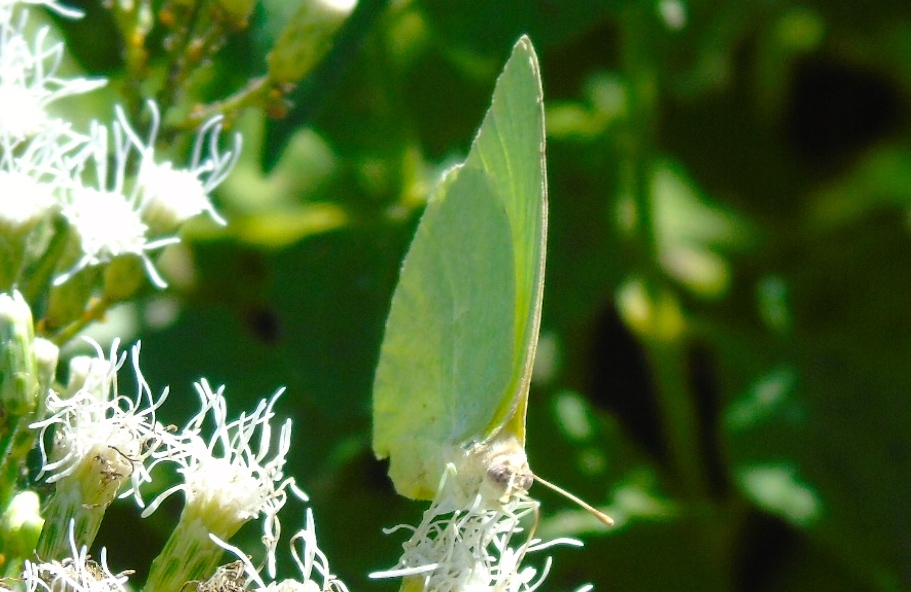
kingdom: Animalia
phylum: Arthropoda
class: Insecta
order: Lepidoptera
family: Pieridae
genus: Kricogonia
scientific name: Kricogonia lyside
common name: Guayacan sulphur,
